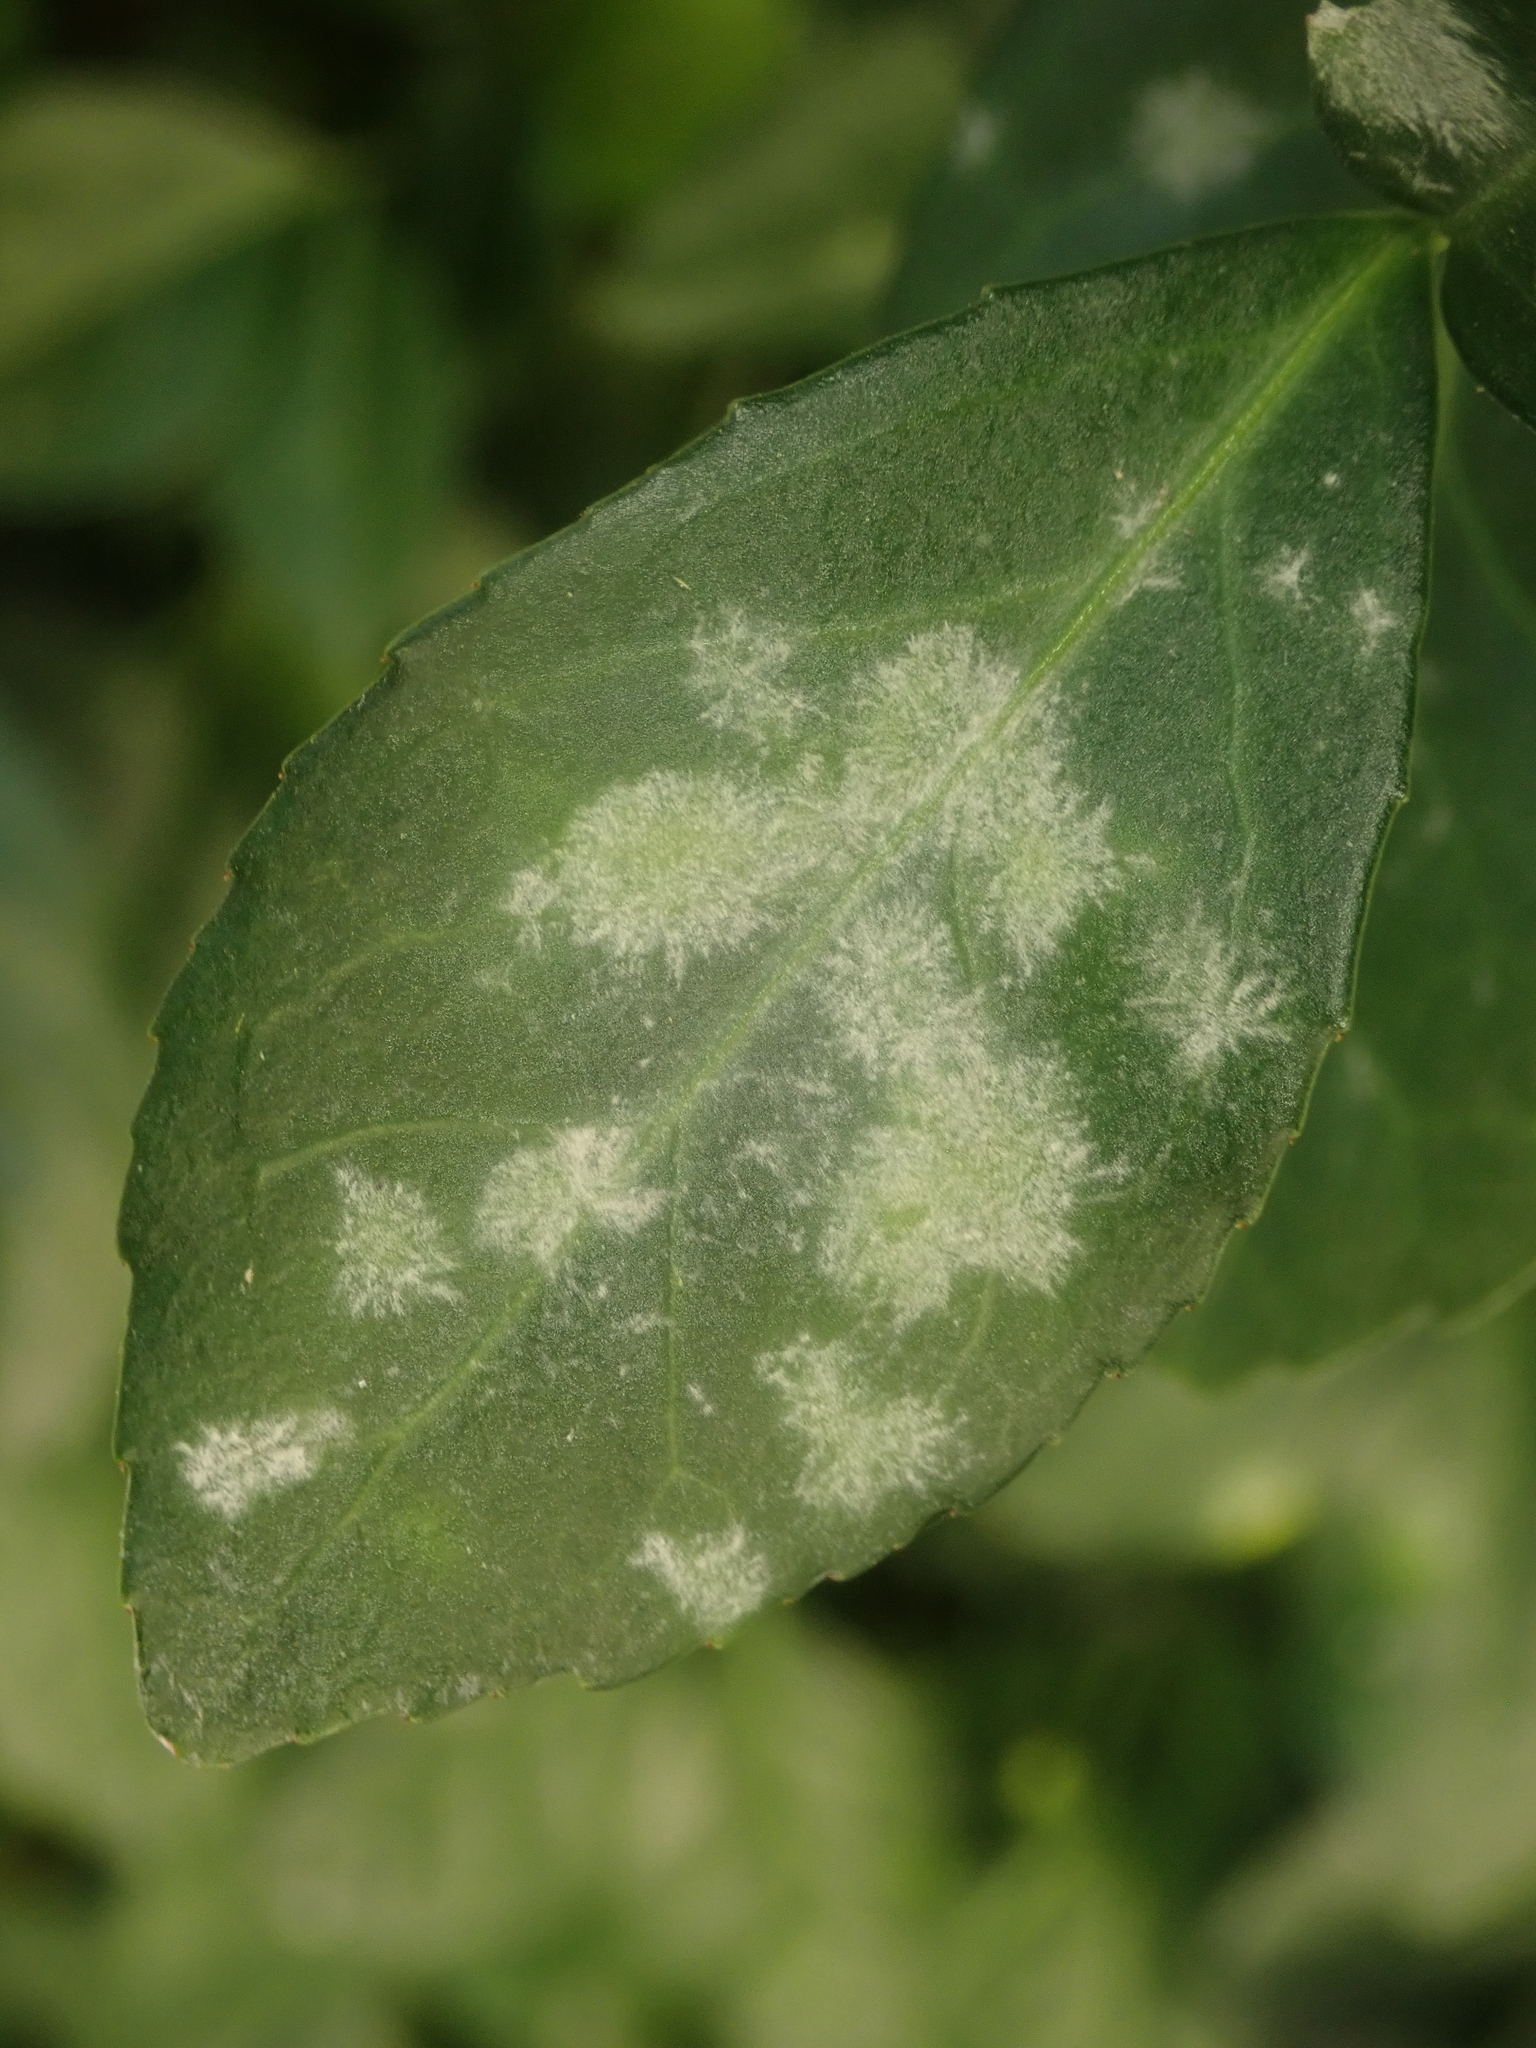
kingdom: Fungi
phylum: Ascomycota
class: Leotiomycetes
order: Helotiales
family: Erysiphaceae
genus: Erysiphe
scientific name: Erysiphe euonymicola
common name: Spindletree mildew
